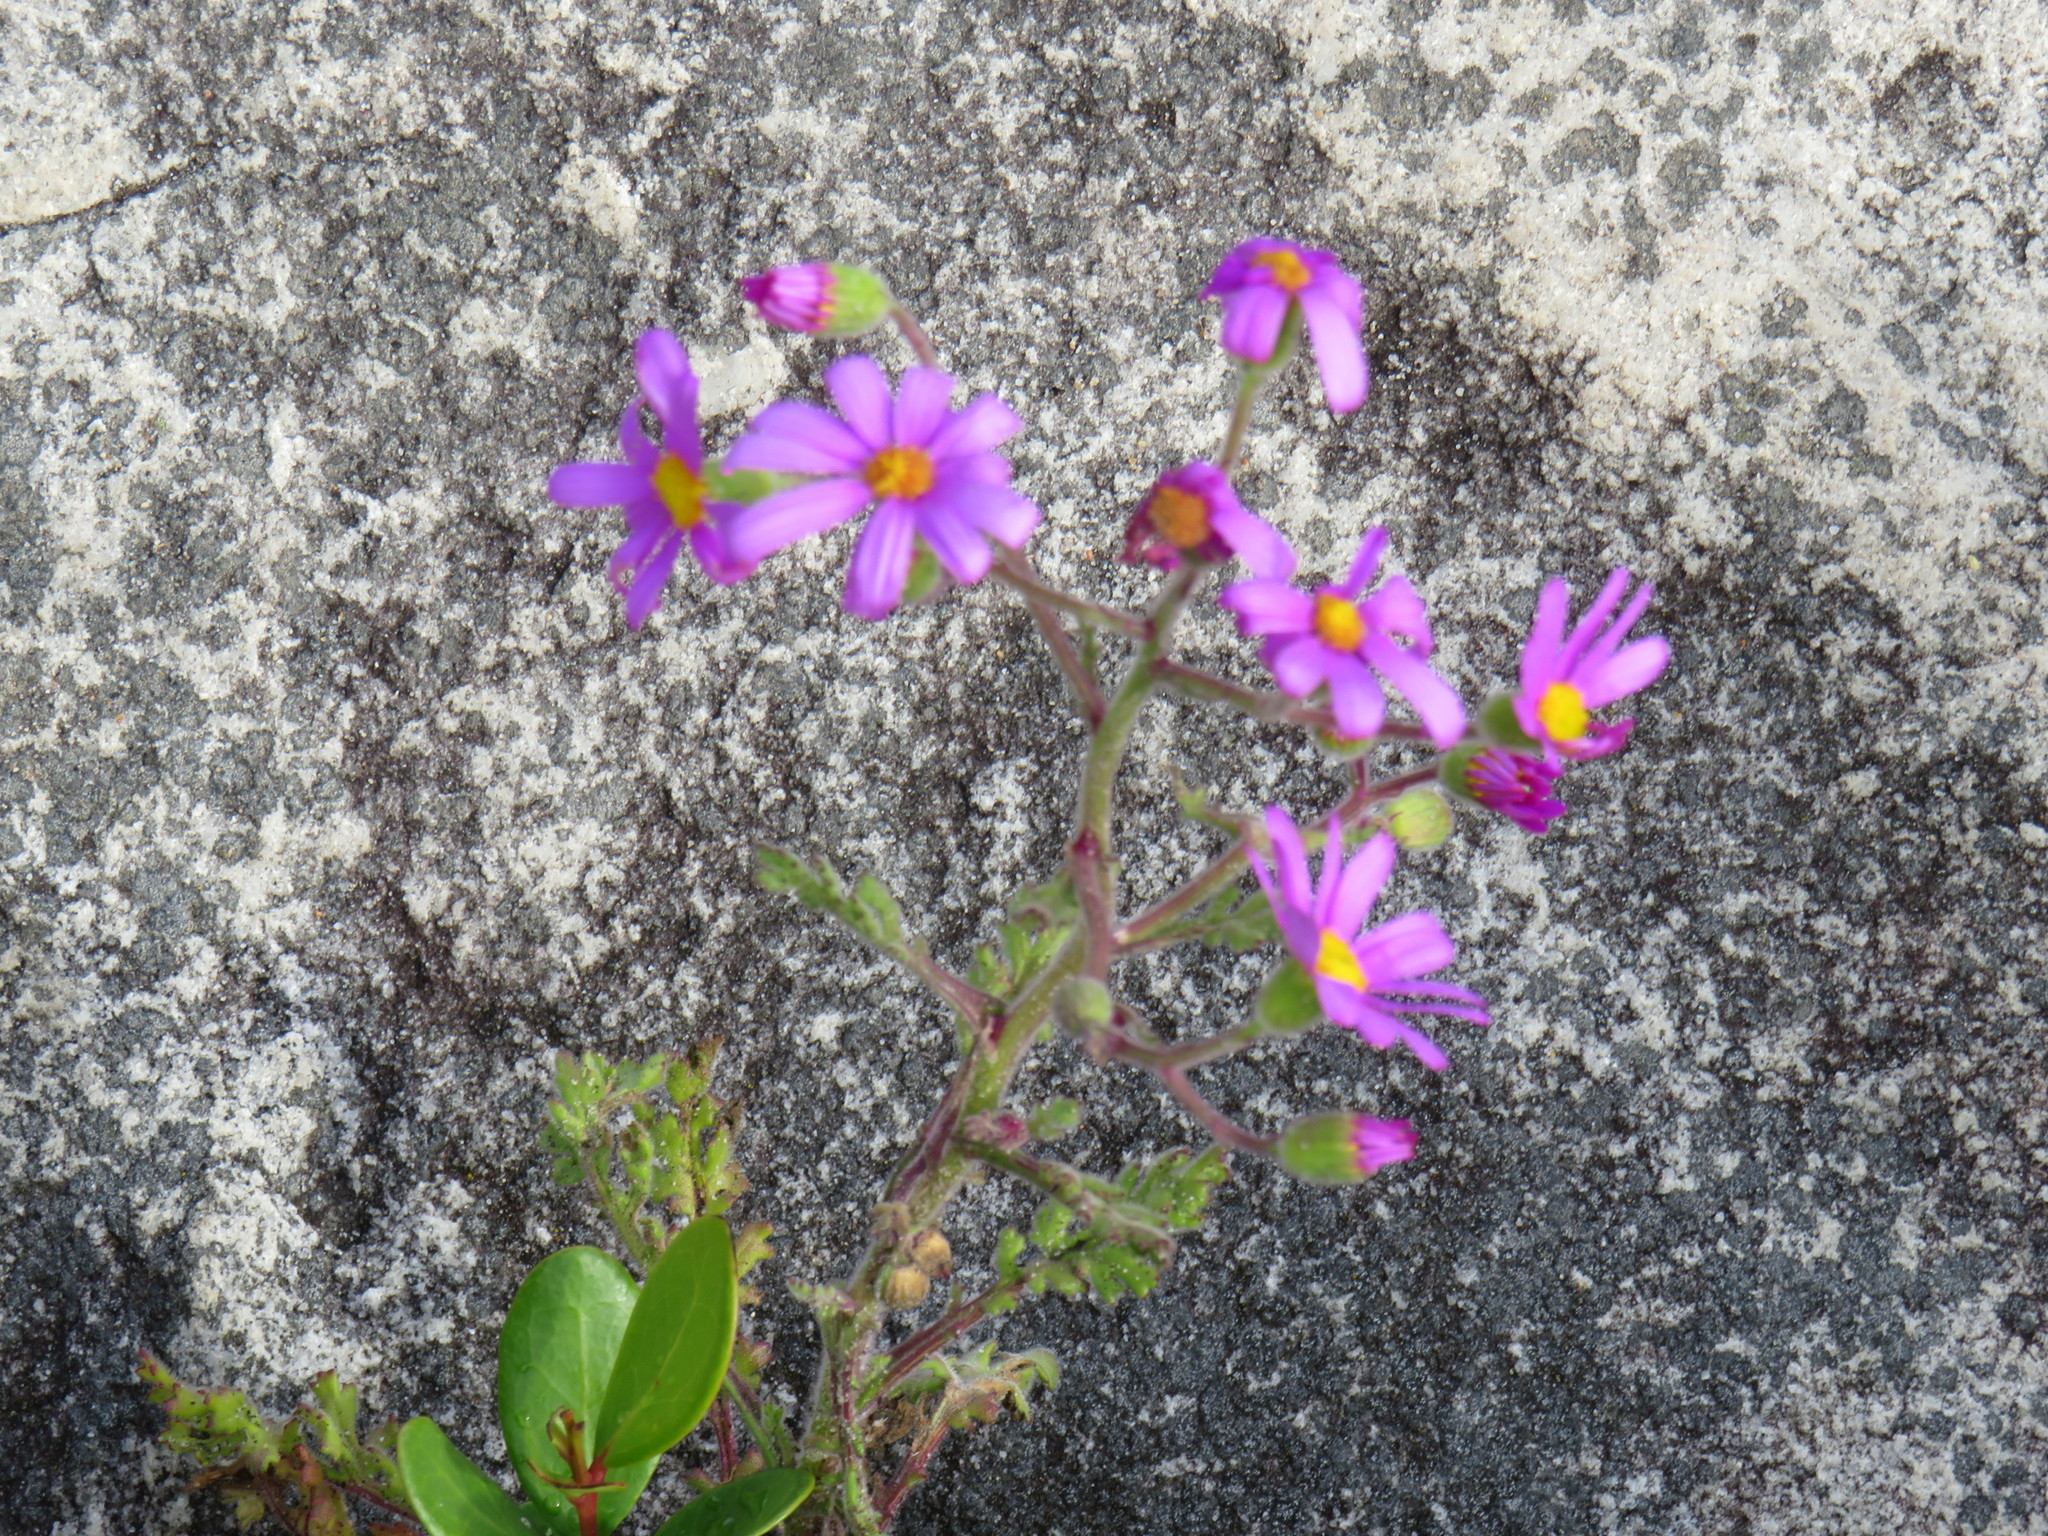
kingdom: Plantae
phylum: Tracheophyta
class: Magnoliopsida
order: Asterales
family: Asteraceae
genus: Senecio
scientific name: Senecio arenarius
